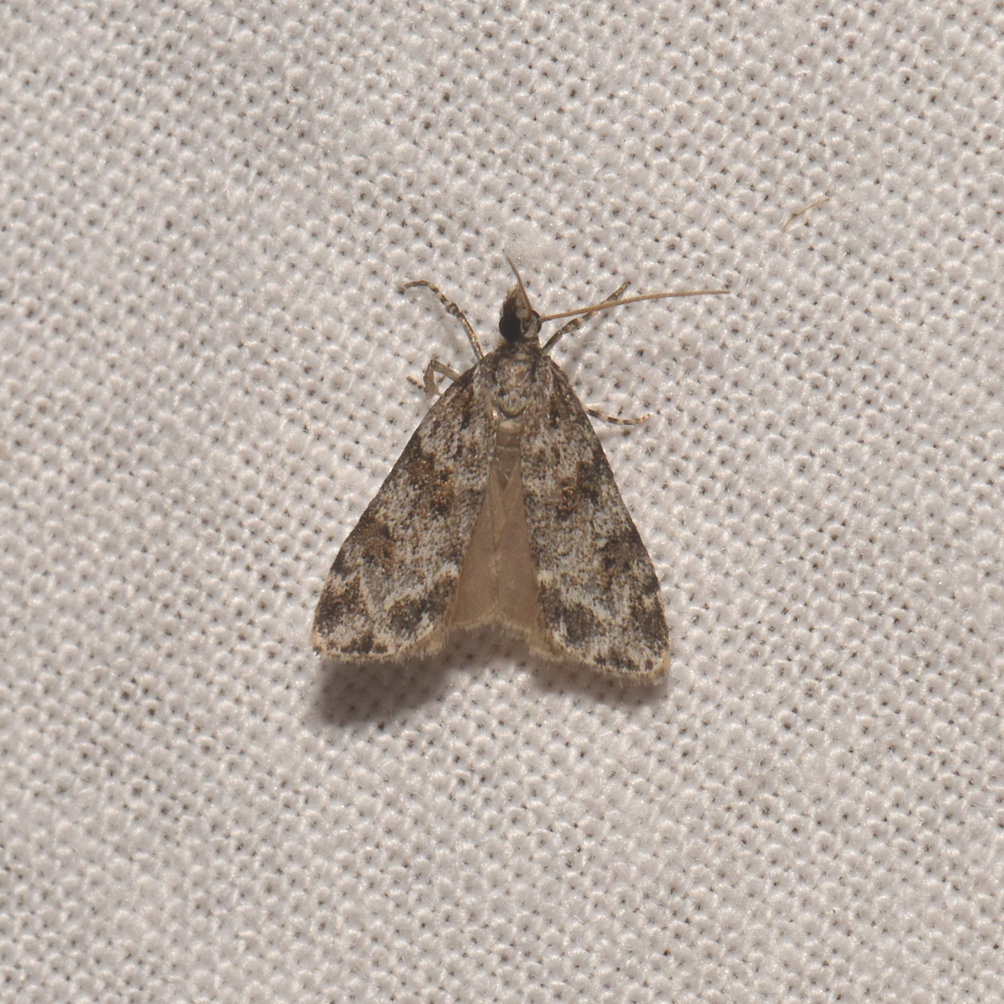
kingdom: Animalia
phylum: Arthropoda
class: Insecta
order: Lepidoptera
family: Crambidae
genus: Scoparia
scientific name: Scoparia biplagialis
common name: Double-striped scoparia moth
